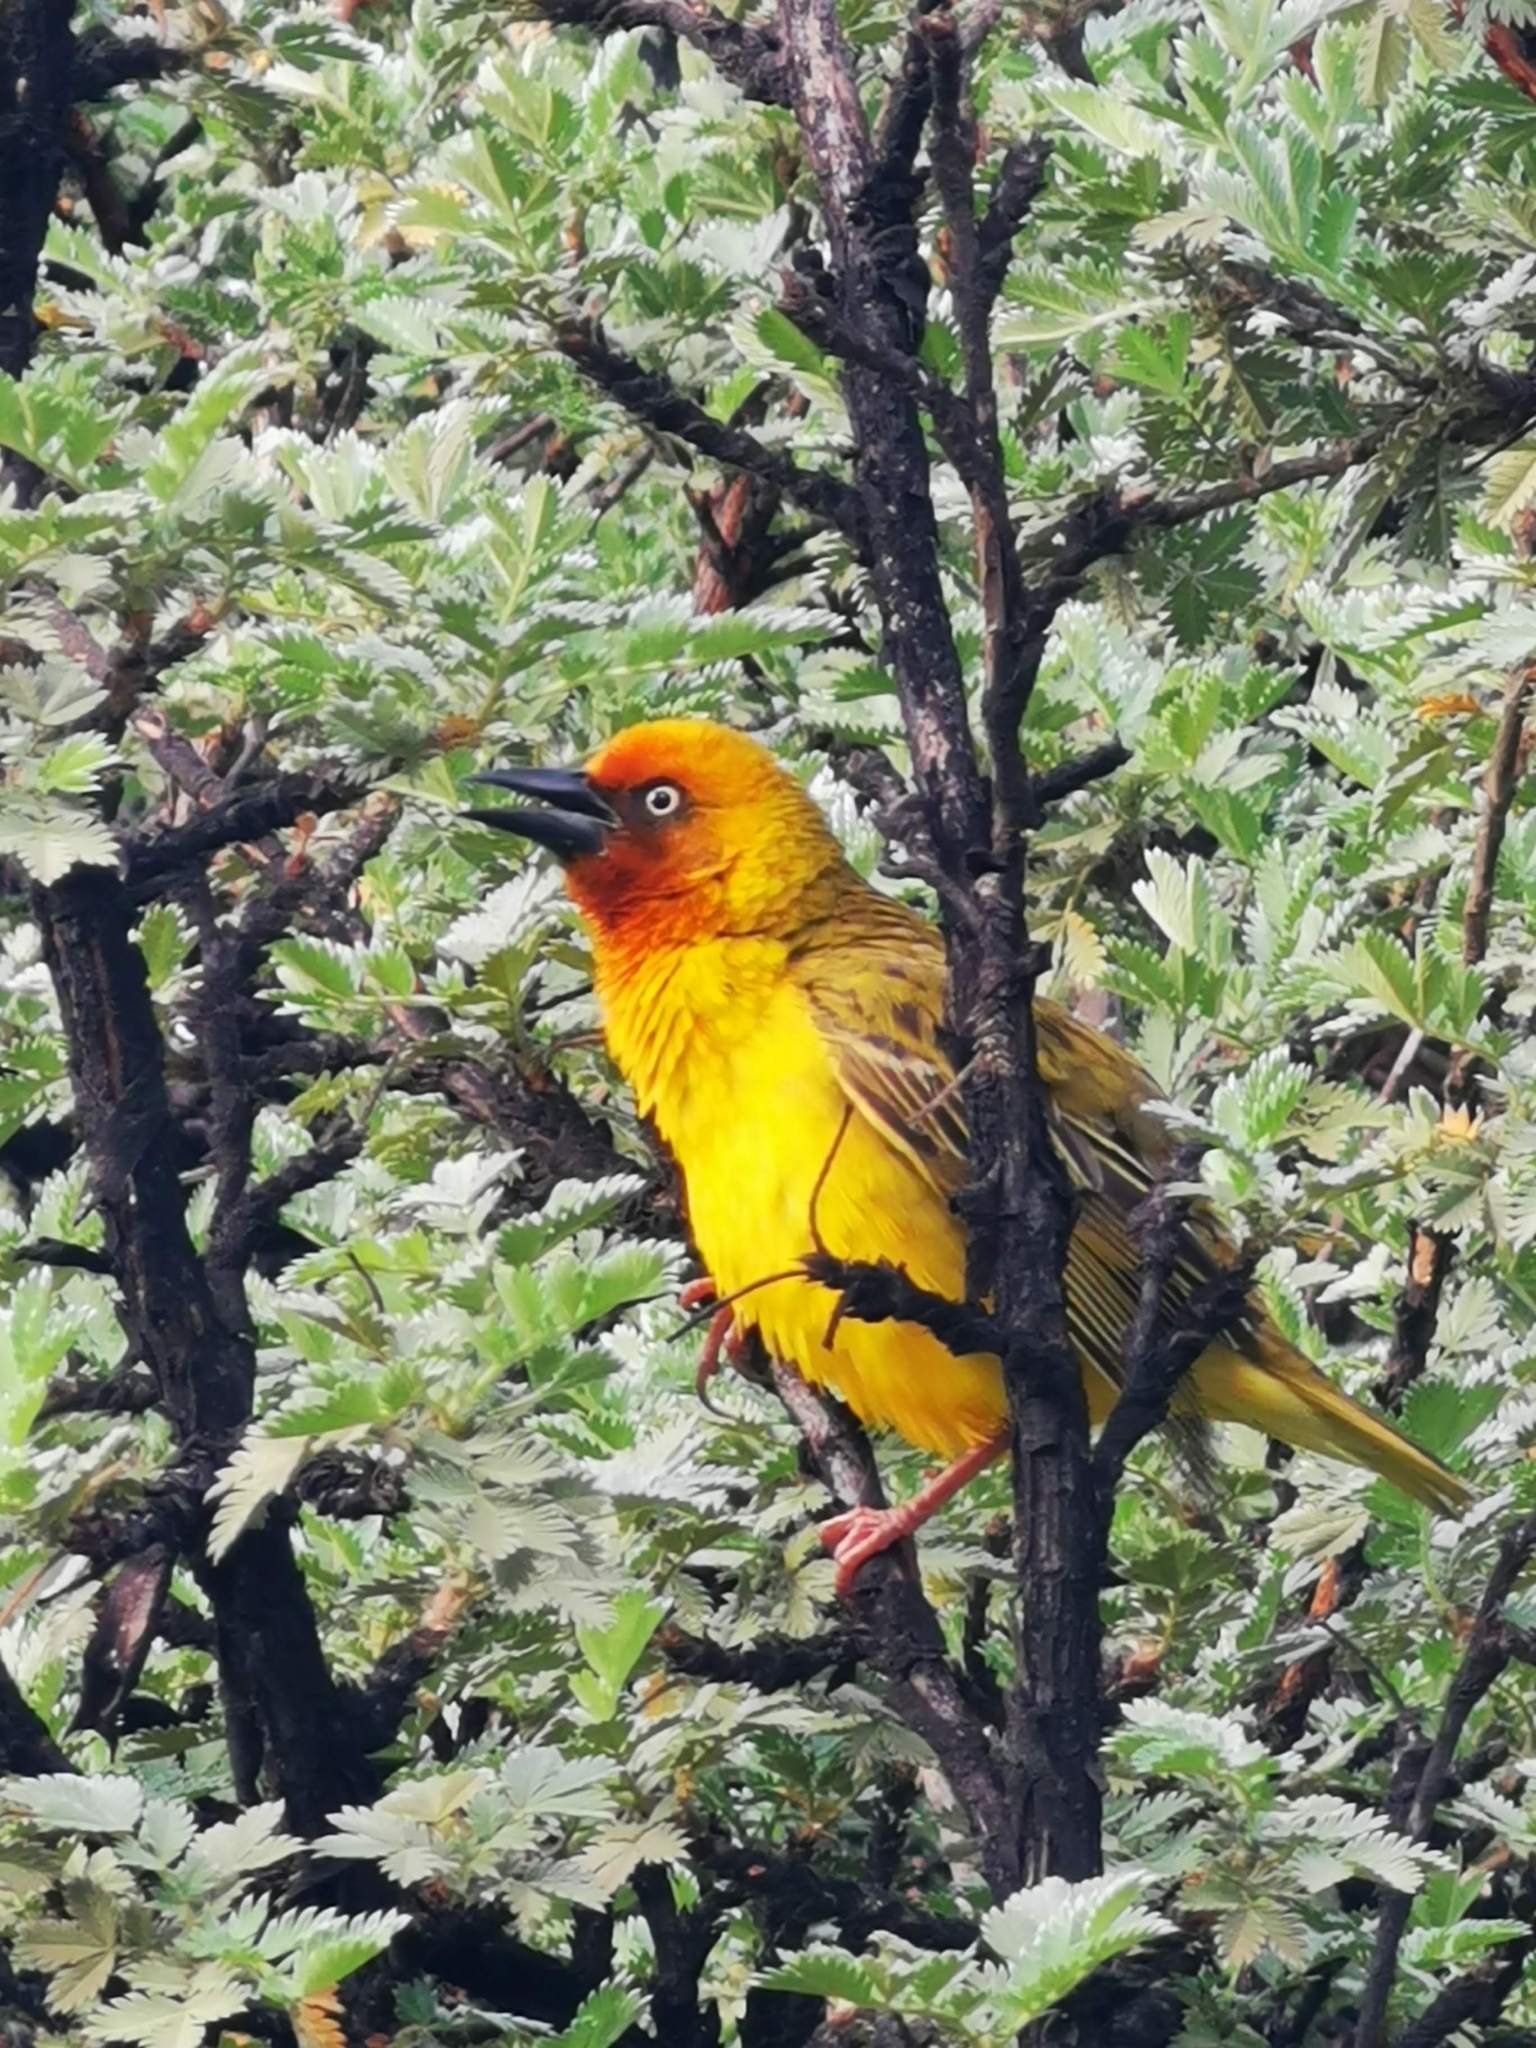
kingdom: Animalia
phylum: Chordata
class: Aves
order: Passeriformes
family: Ploceidae
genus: Ploceus
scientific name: Ploceus capensis
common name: Cape weaver
